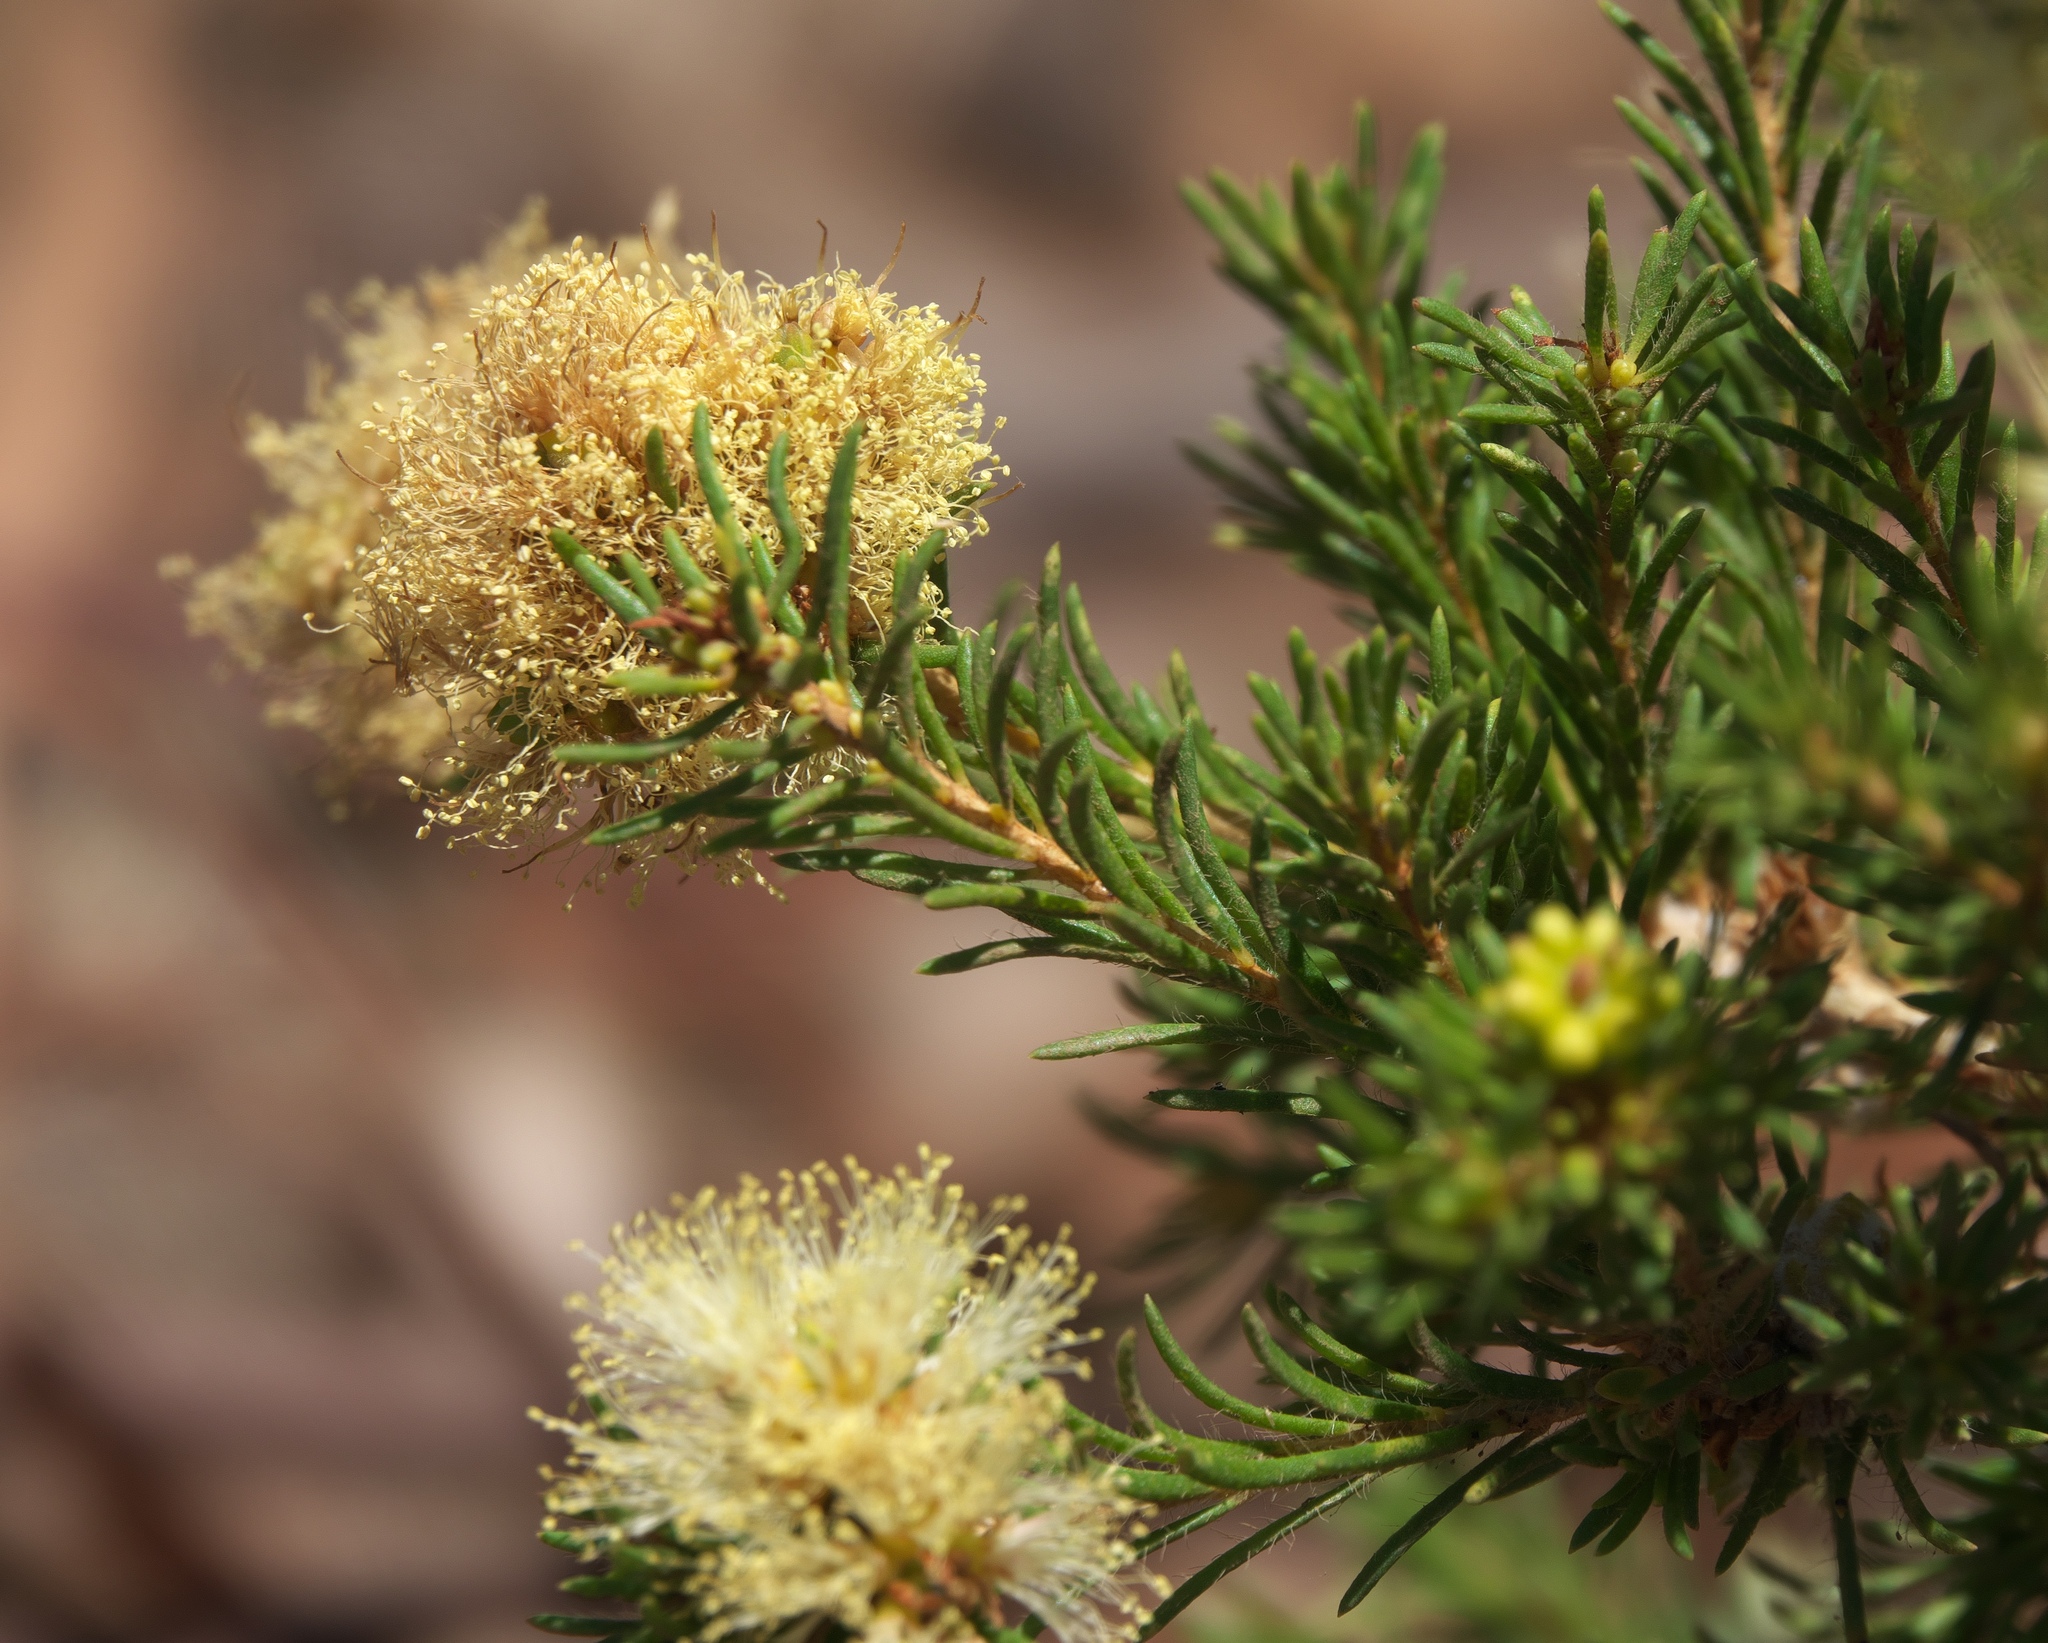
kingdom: Plantae
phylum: Tracheophyta
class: Magnoliopsida
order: Myrtales
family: Myrtaceae
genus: Melaleuca
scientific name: Melaleuca systena
